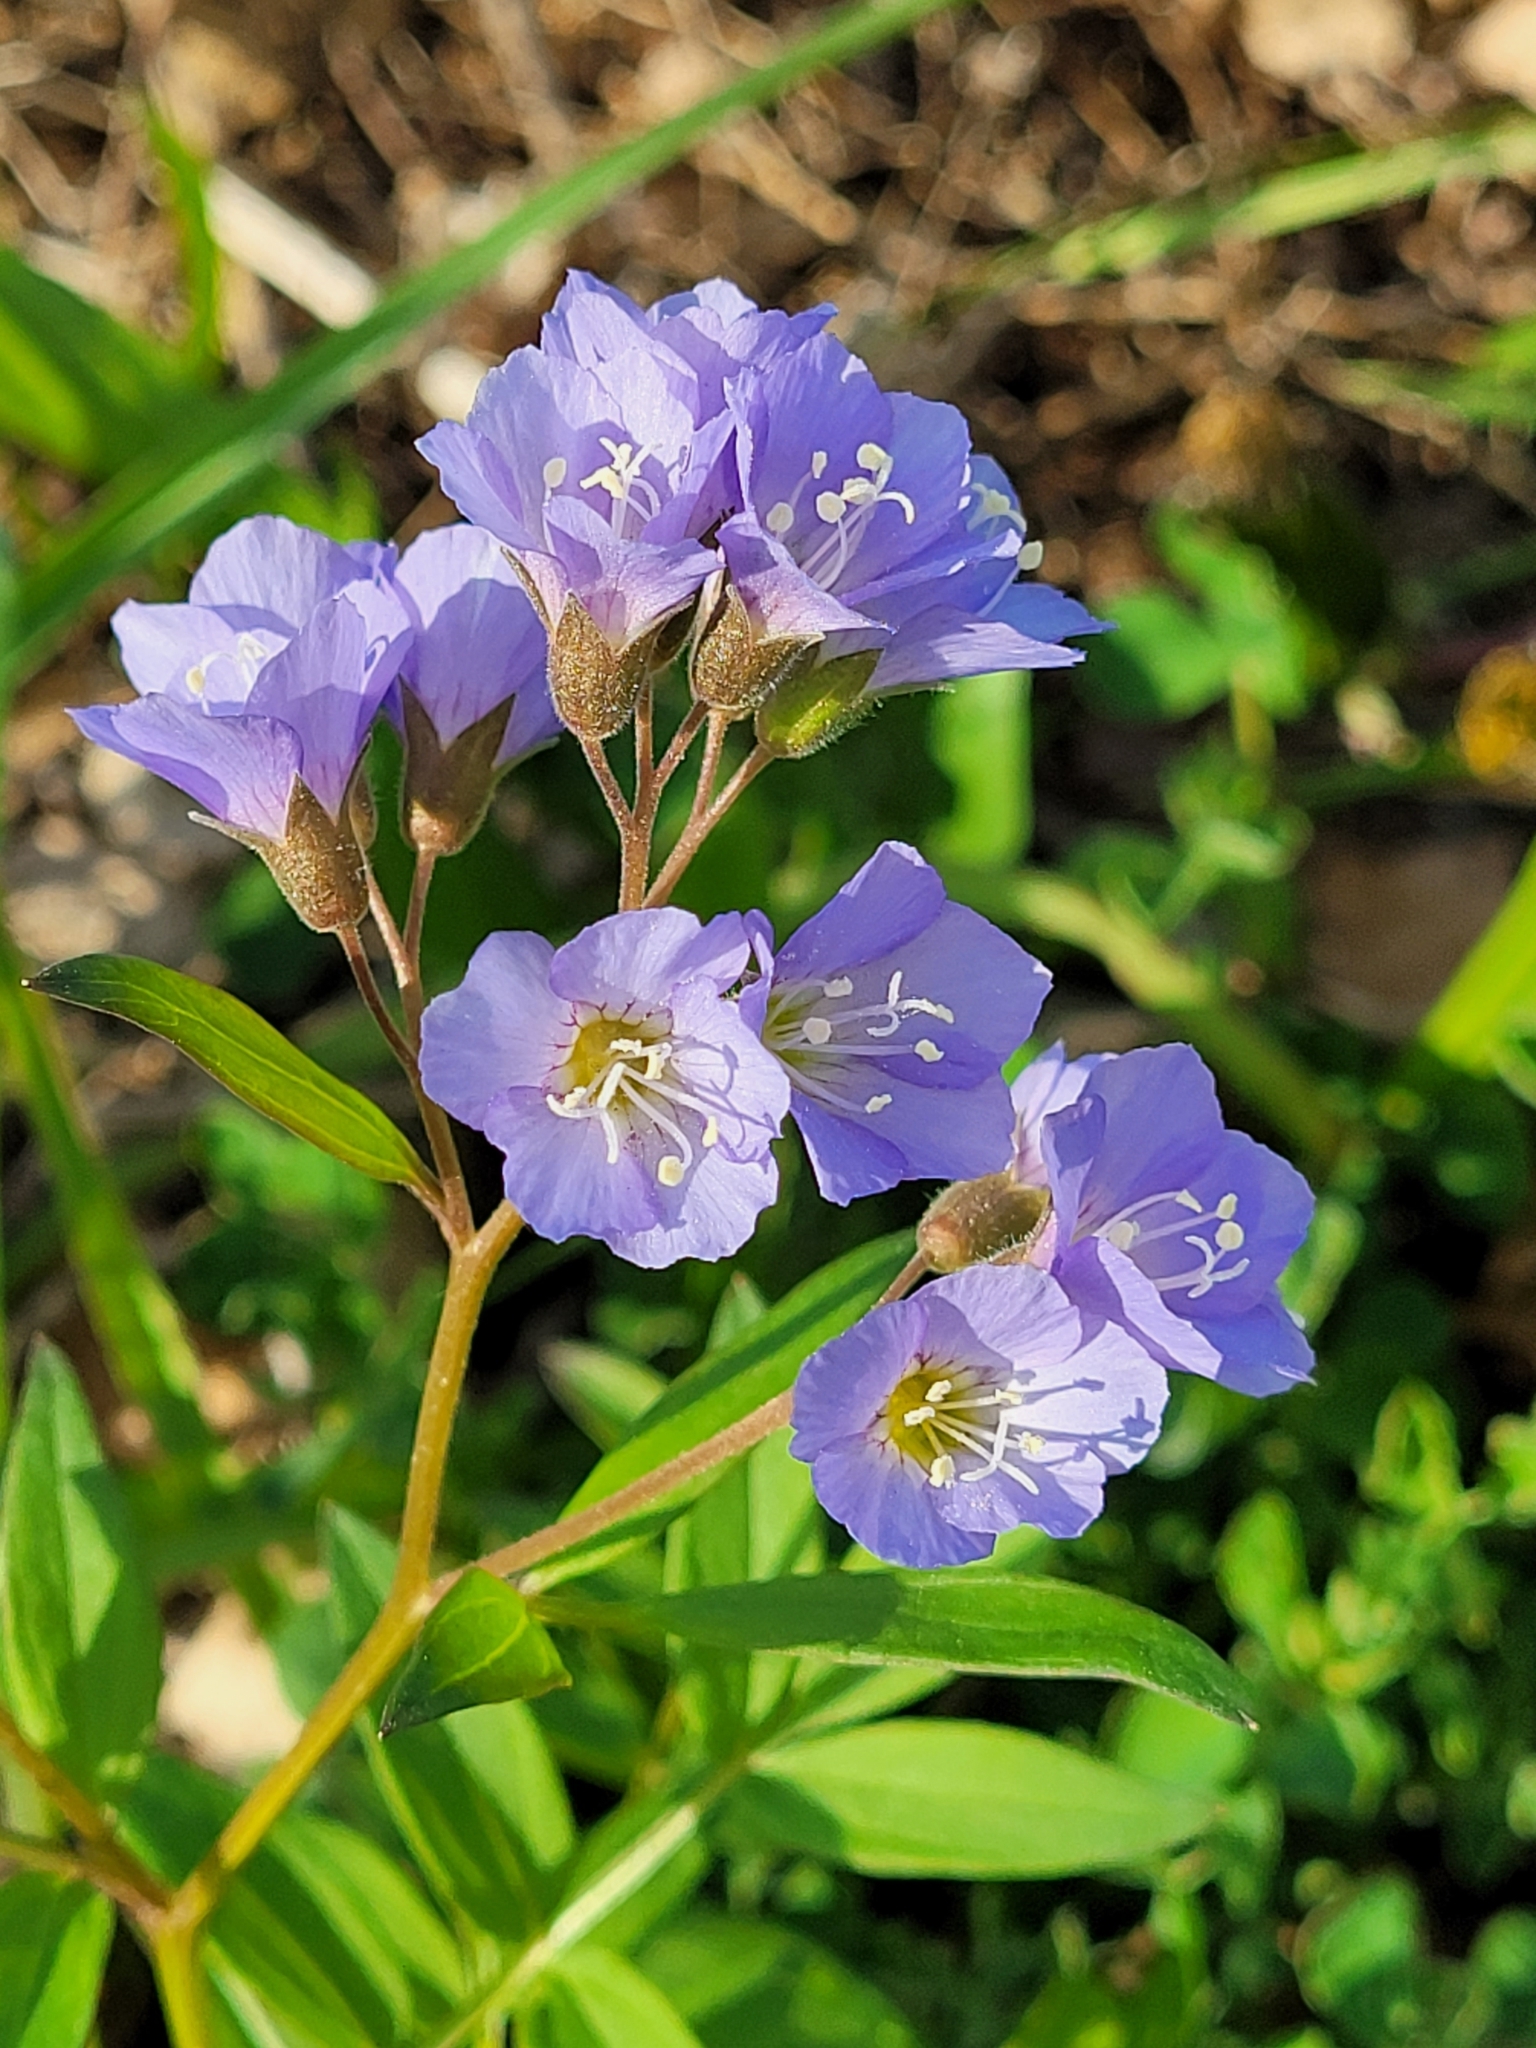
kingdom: Plantae
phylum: Tracheophyta
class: Magnoliopsida
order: Ericales
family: Polemoniaceae
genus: Polemonium
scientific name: Polemonium reptans
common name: Creeping jacob's-ladder
